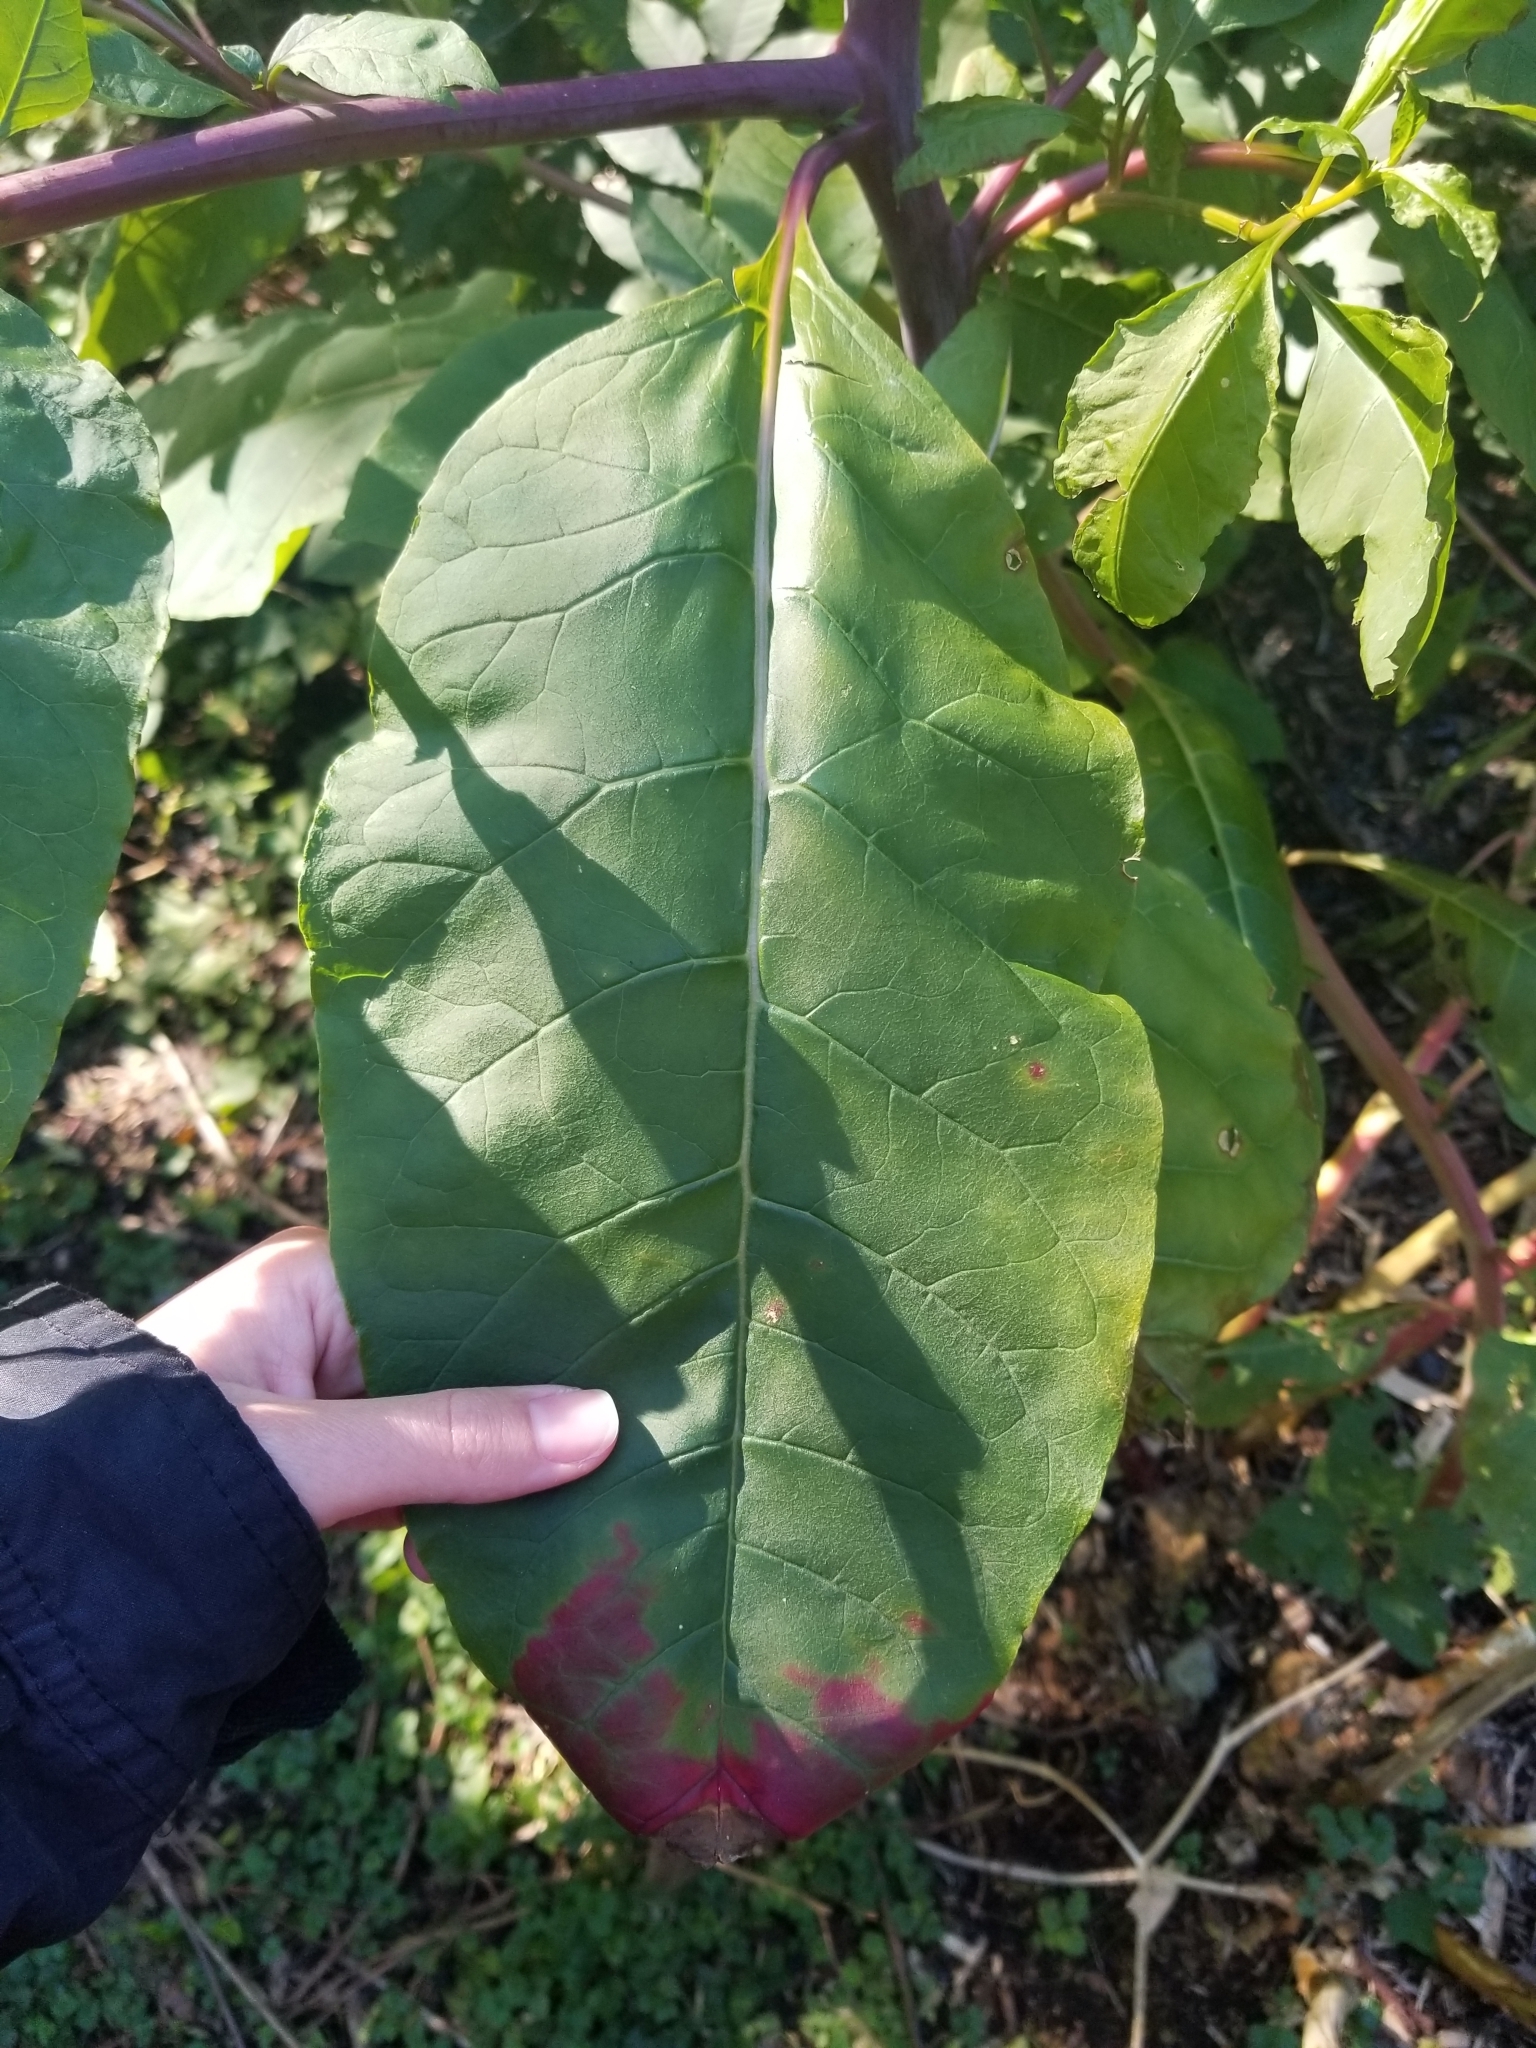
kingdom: Plantae
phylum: Tracheophyta
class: Magnoliopsida
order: Caryophyllales
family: Phytolaccaceae
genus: Phytolacca
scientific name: Phytolacca americana
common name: American pokeweed
